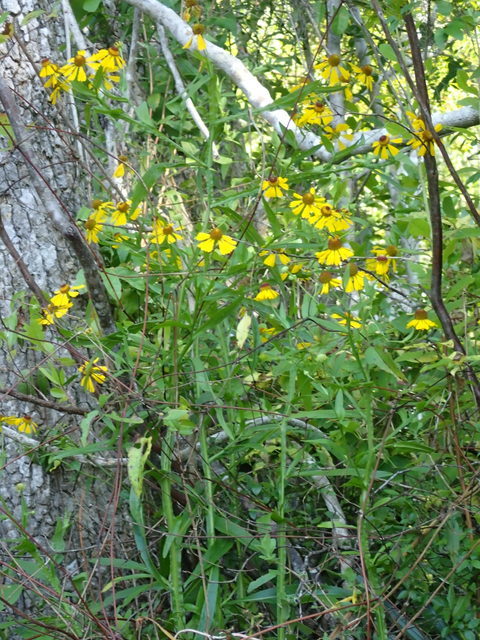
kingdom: Plantae
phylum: Tracheophyta
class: Magnoliopsida
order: Asterales
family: Asteraceae
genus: Helenium
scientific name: Helenium flexuosum
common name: Naked-flowered sneezeweed
